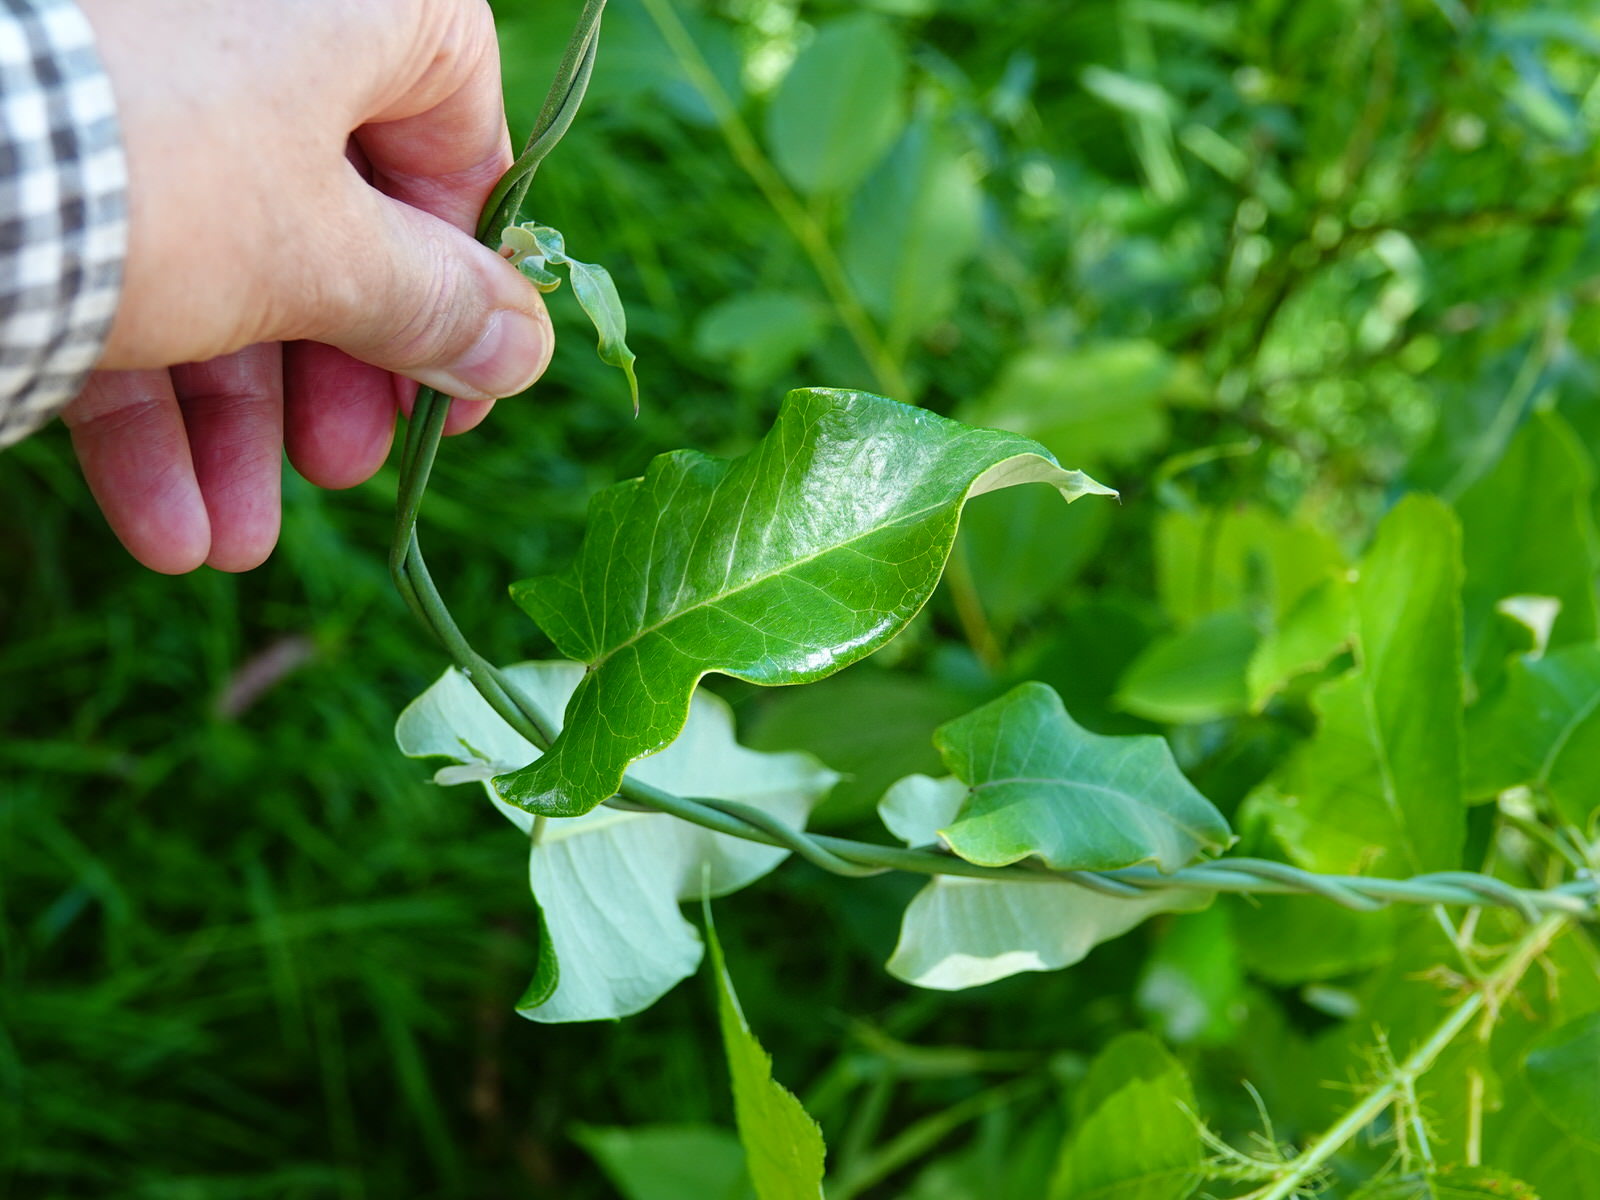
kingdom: Plantae
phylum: Tracheophyta
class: Magnoliopsida
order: Gentianales
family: Apocynaceae
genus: Araujia
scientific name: Araujia sericifera
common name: White bladderflower
